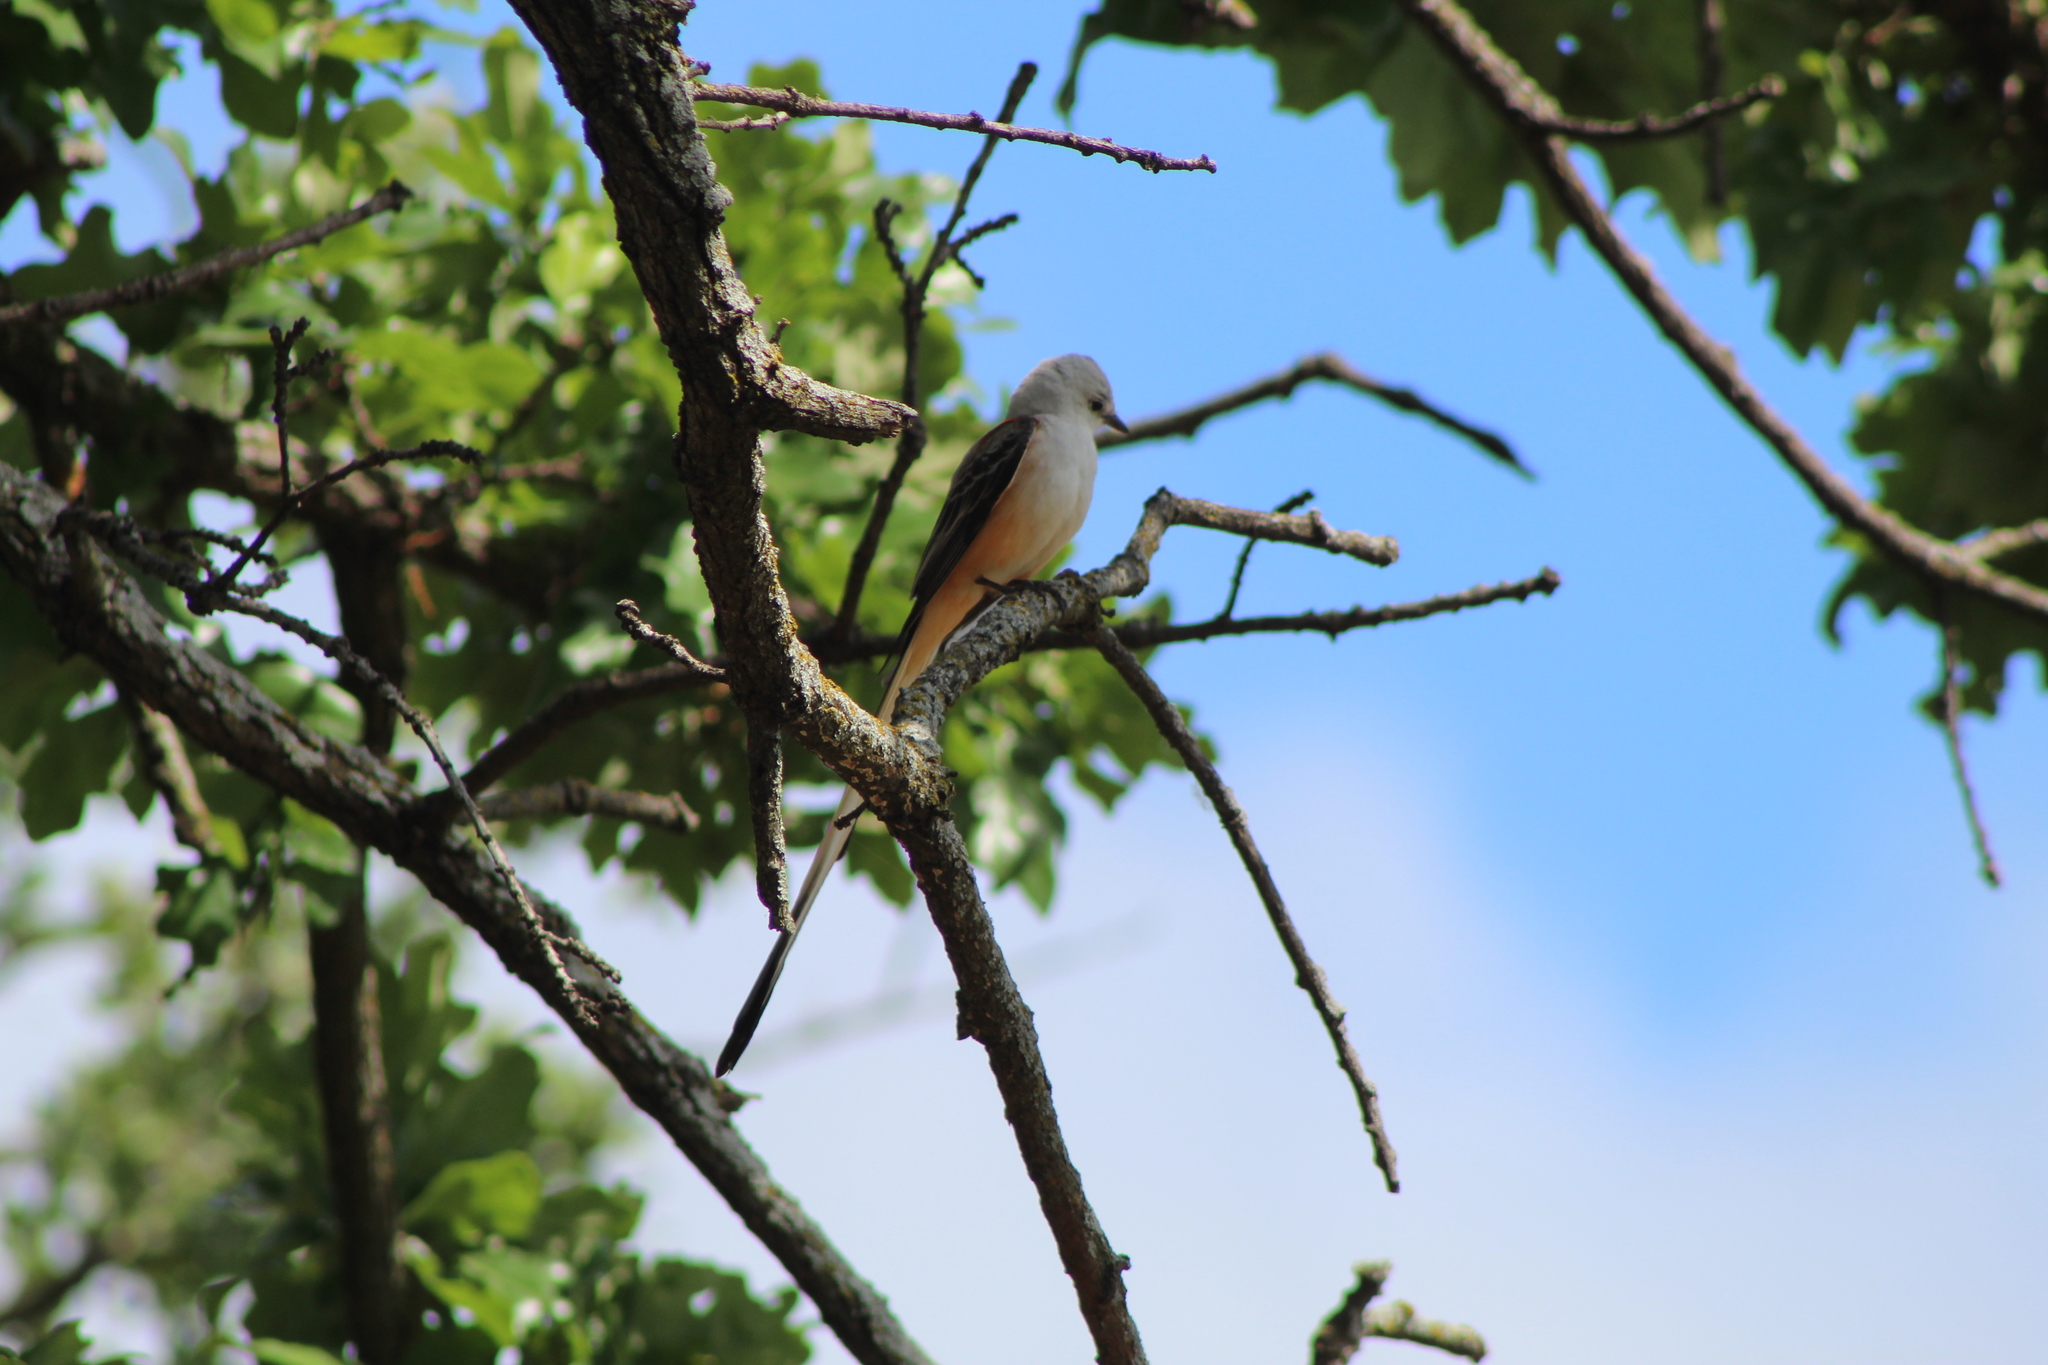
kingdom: Animalia
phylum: Chordata
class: Aves
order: Passeriformes
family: Tyrannidae
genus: Tyrannus
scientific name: Tyrannus forficatus
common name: Scissor-tailed flycatcher
